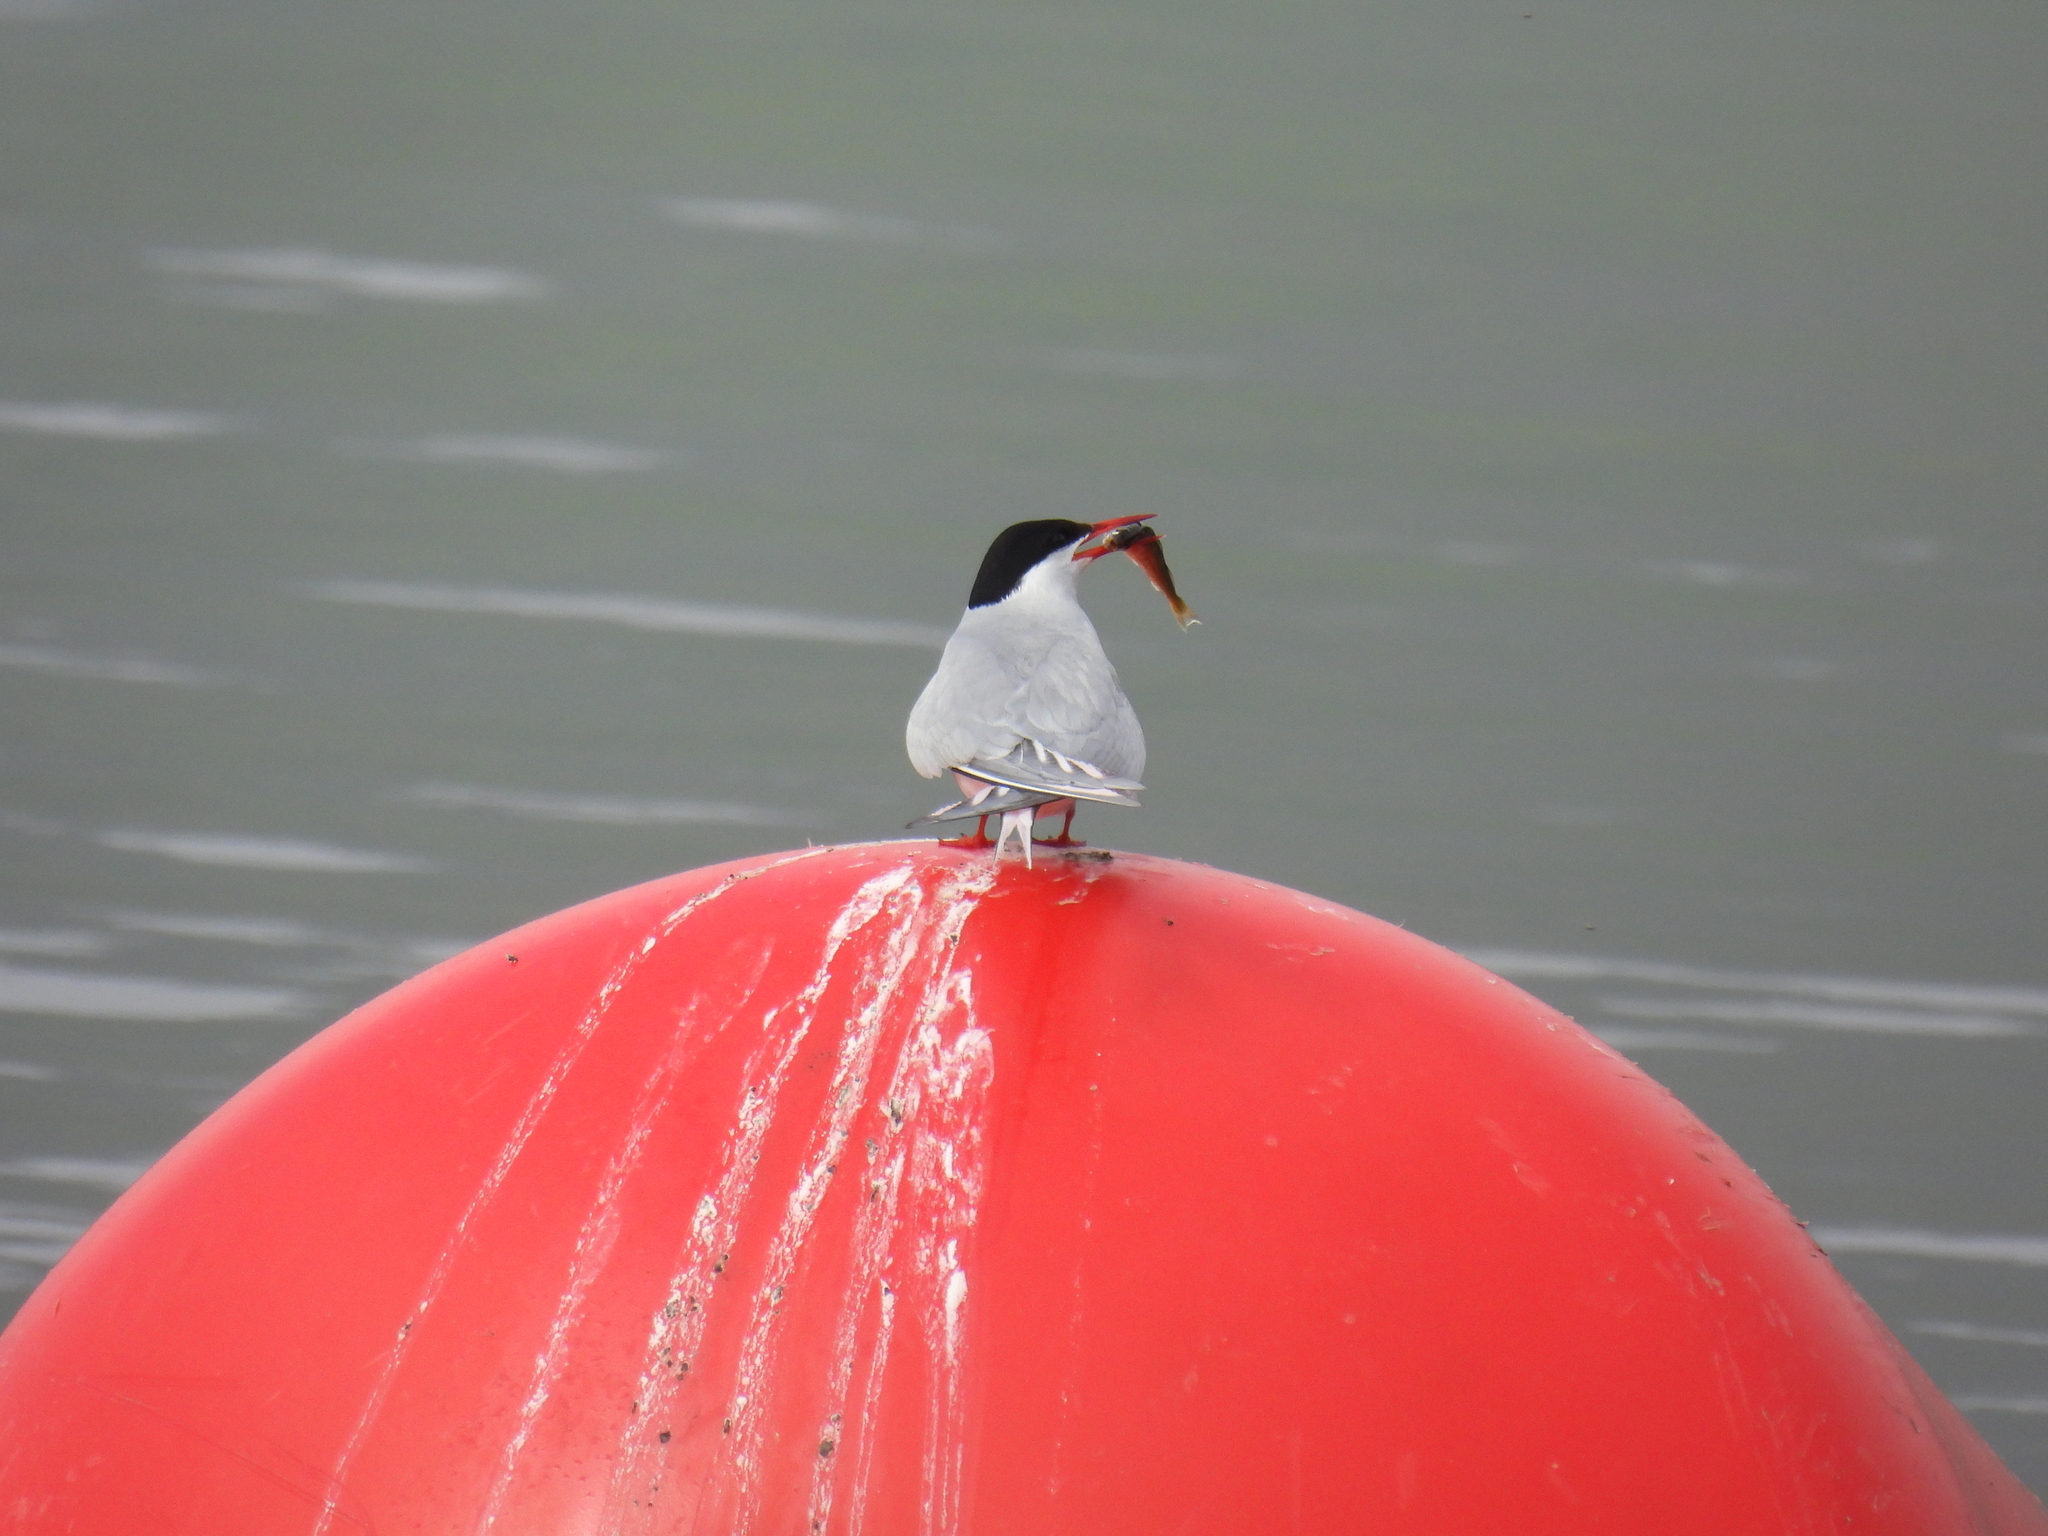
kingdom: Animalia
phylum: Chordata
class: Aves
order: Charadriiformes
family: Laridae
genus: Sterna
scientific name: Sterna paradisaea
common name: Arctic tern
